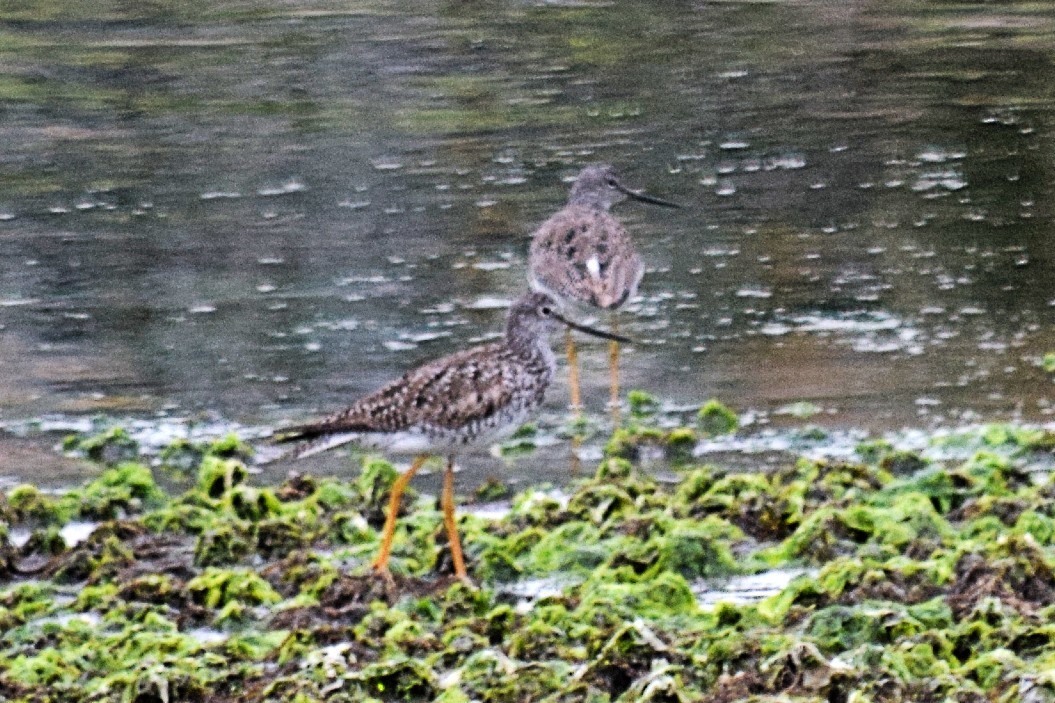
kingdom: Animalia
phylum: Chordata
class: Aves
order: Charadriiformes
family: Scolopacidae
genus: Tringa
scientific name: Tringa melanoleuca
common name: Greater yellowlegs
